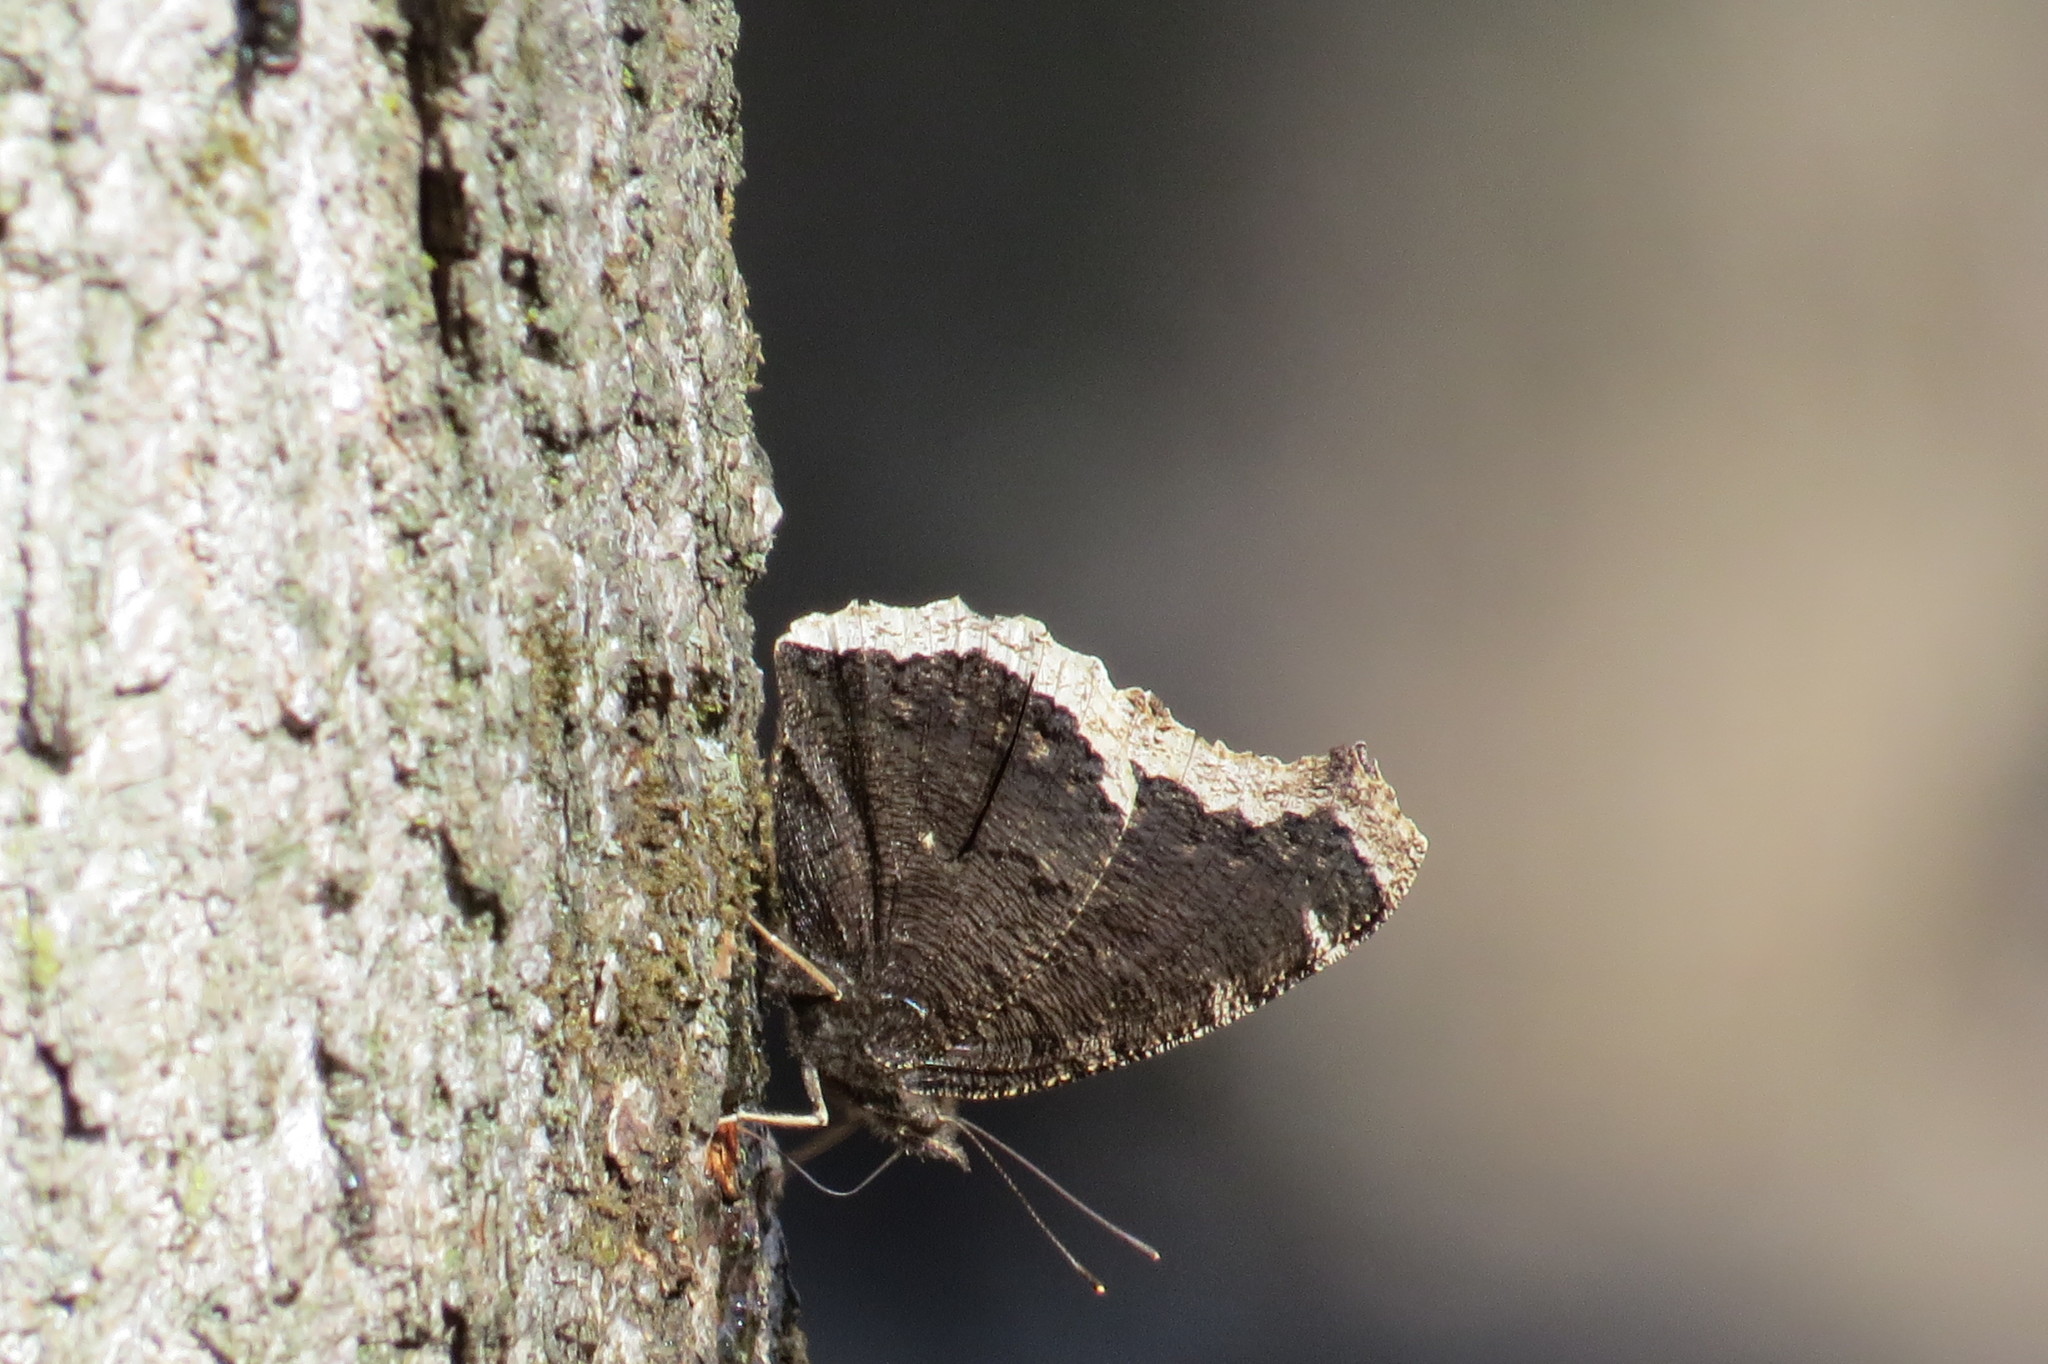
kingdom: Animalia
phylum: Arthropoda
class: Insecta
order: Lepidoptera
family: Nymphalidae
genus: Nymphalis
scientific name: Nymphalis antiopa
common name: Camberwell beauty
